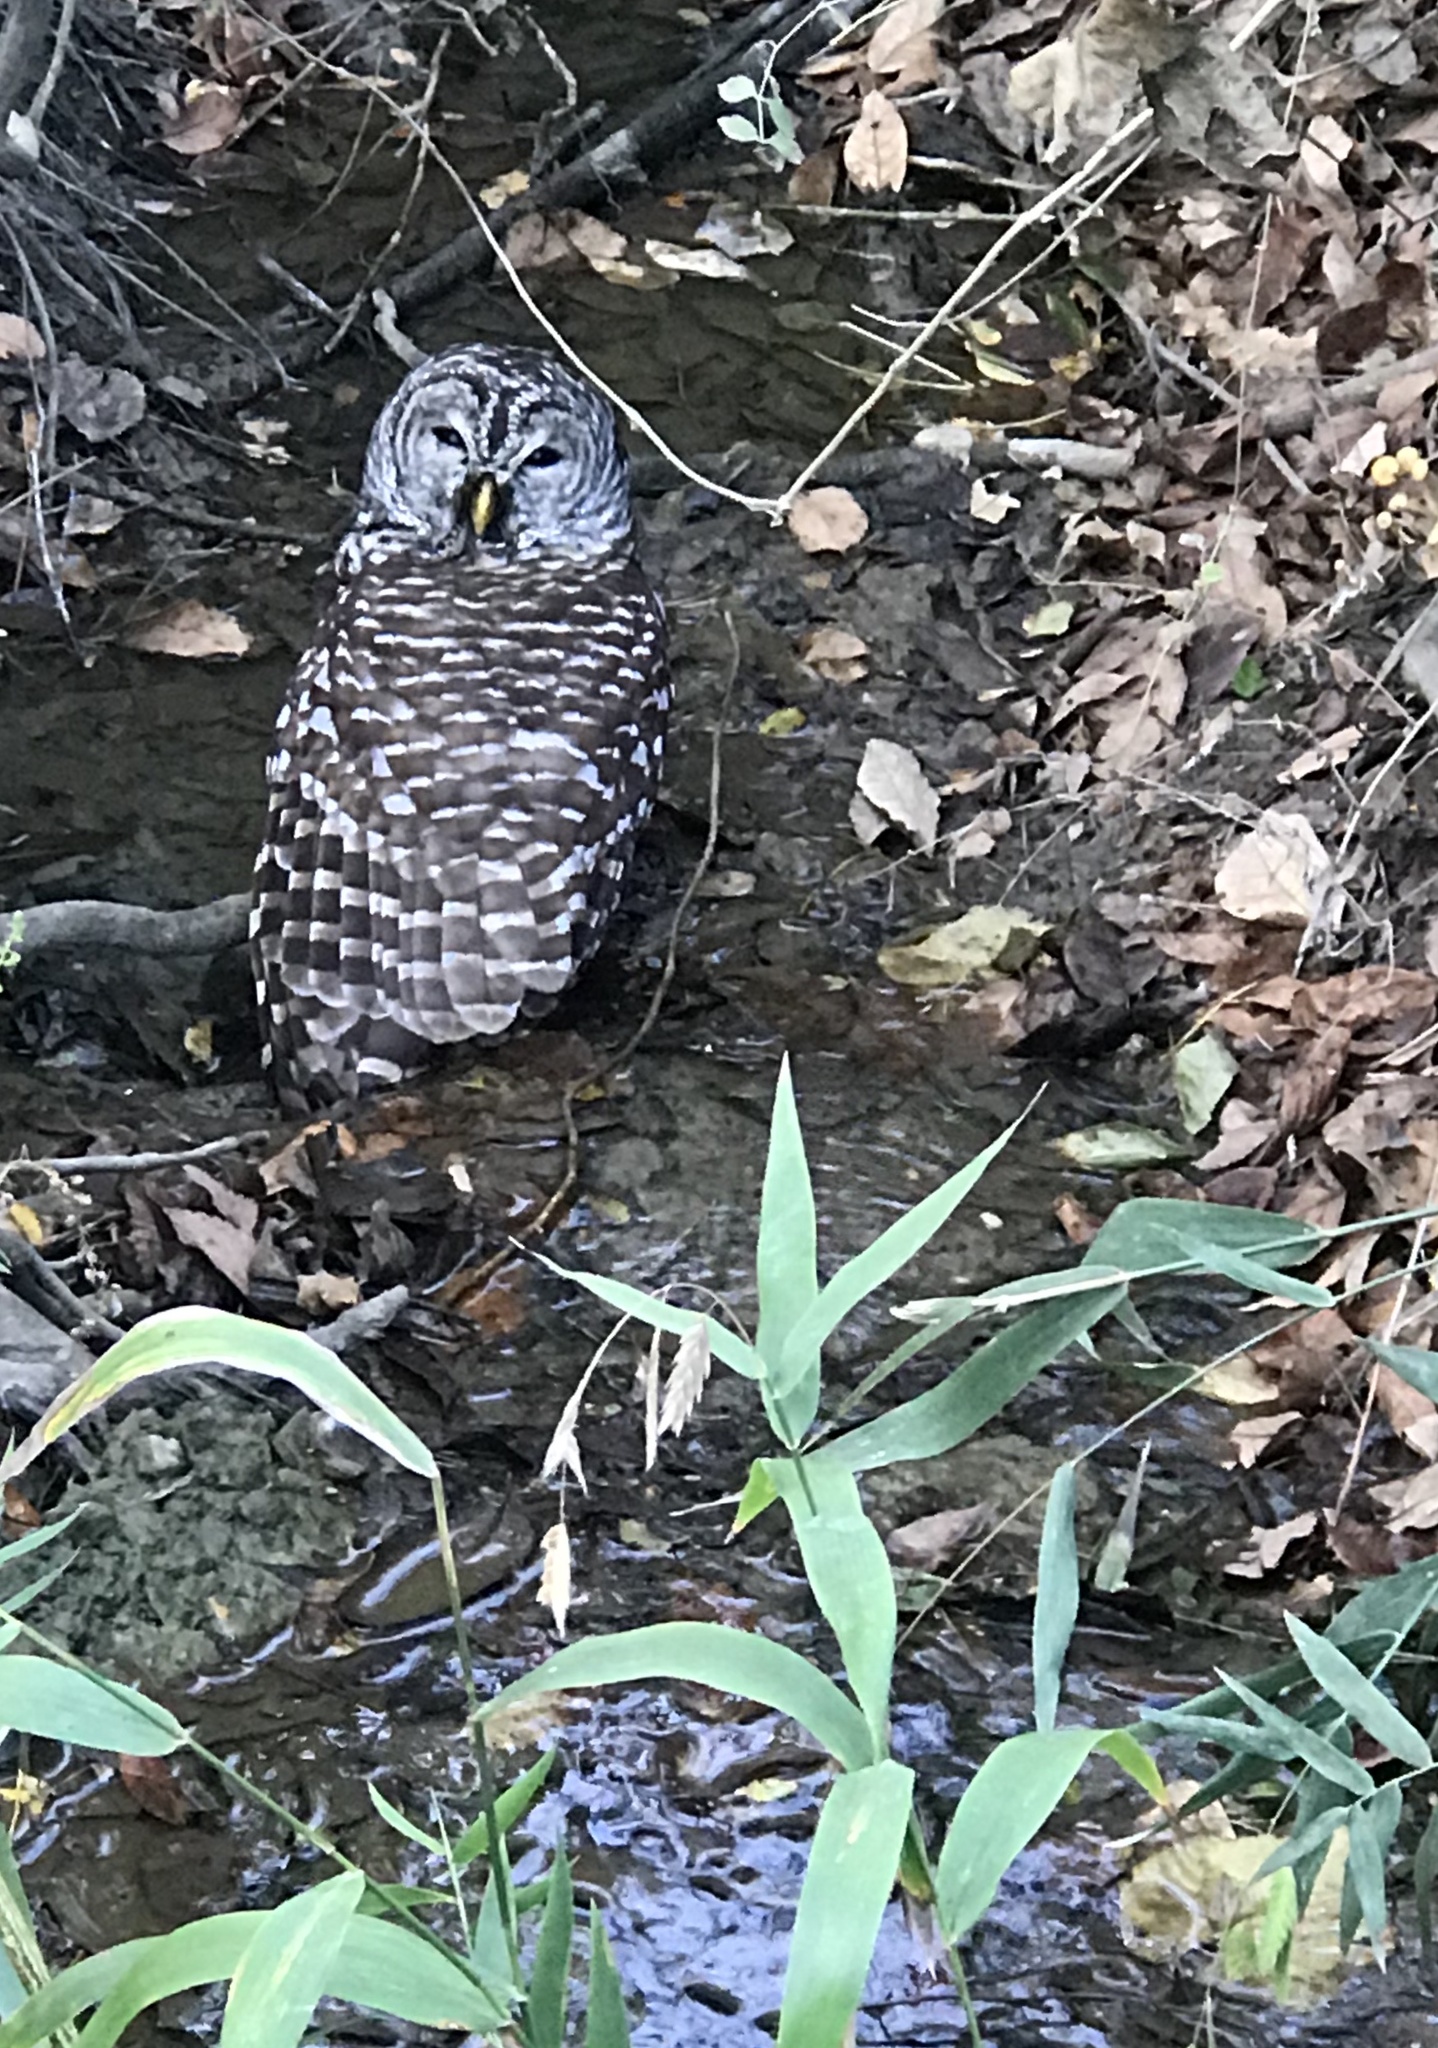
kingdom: Animalia
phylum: Chordata
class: Aves
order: Strigiformes
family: Strigidae
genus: Strix
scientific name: Strix varia
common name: Barred owl
